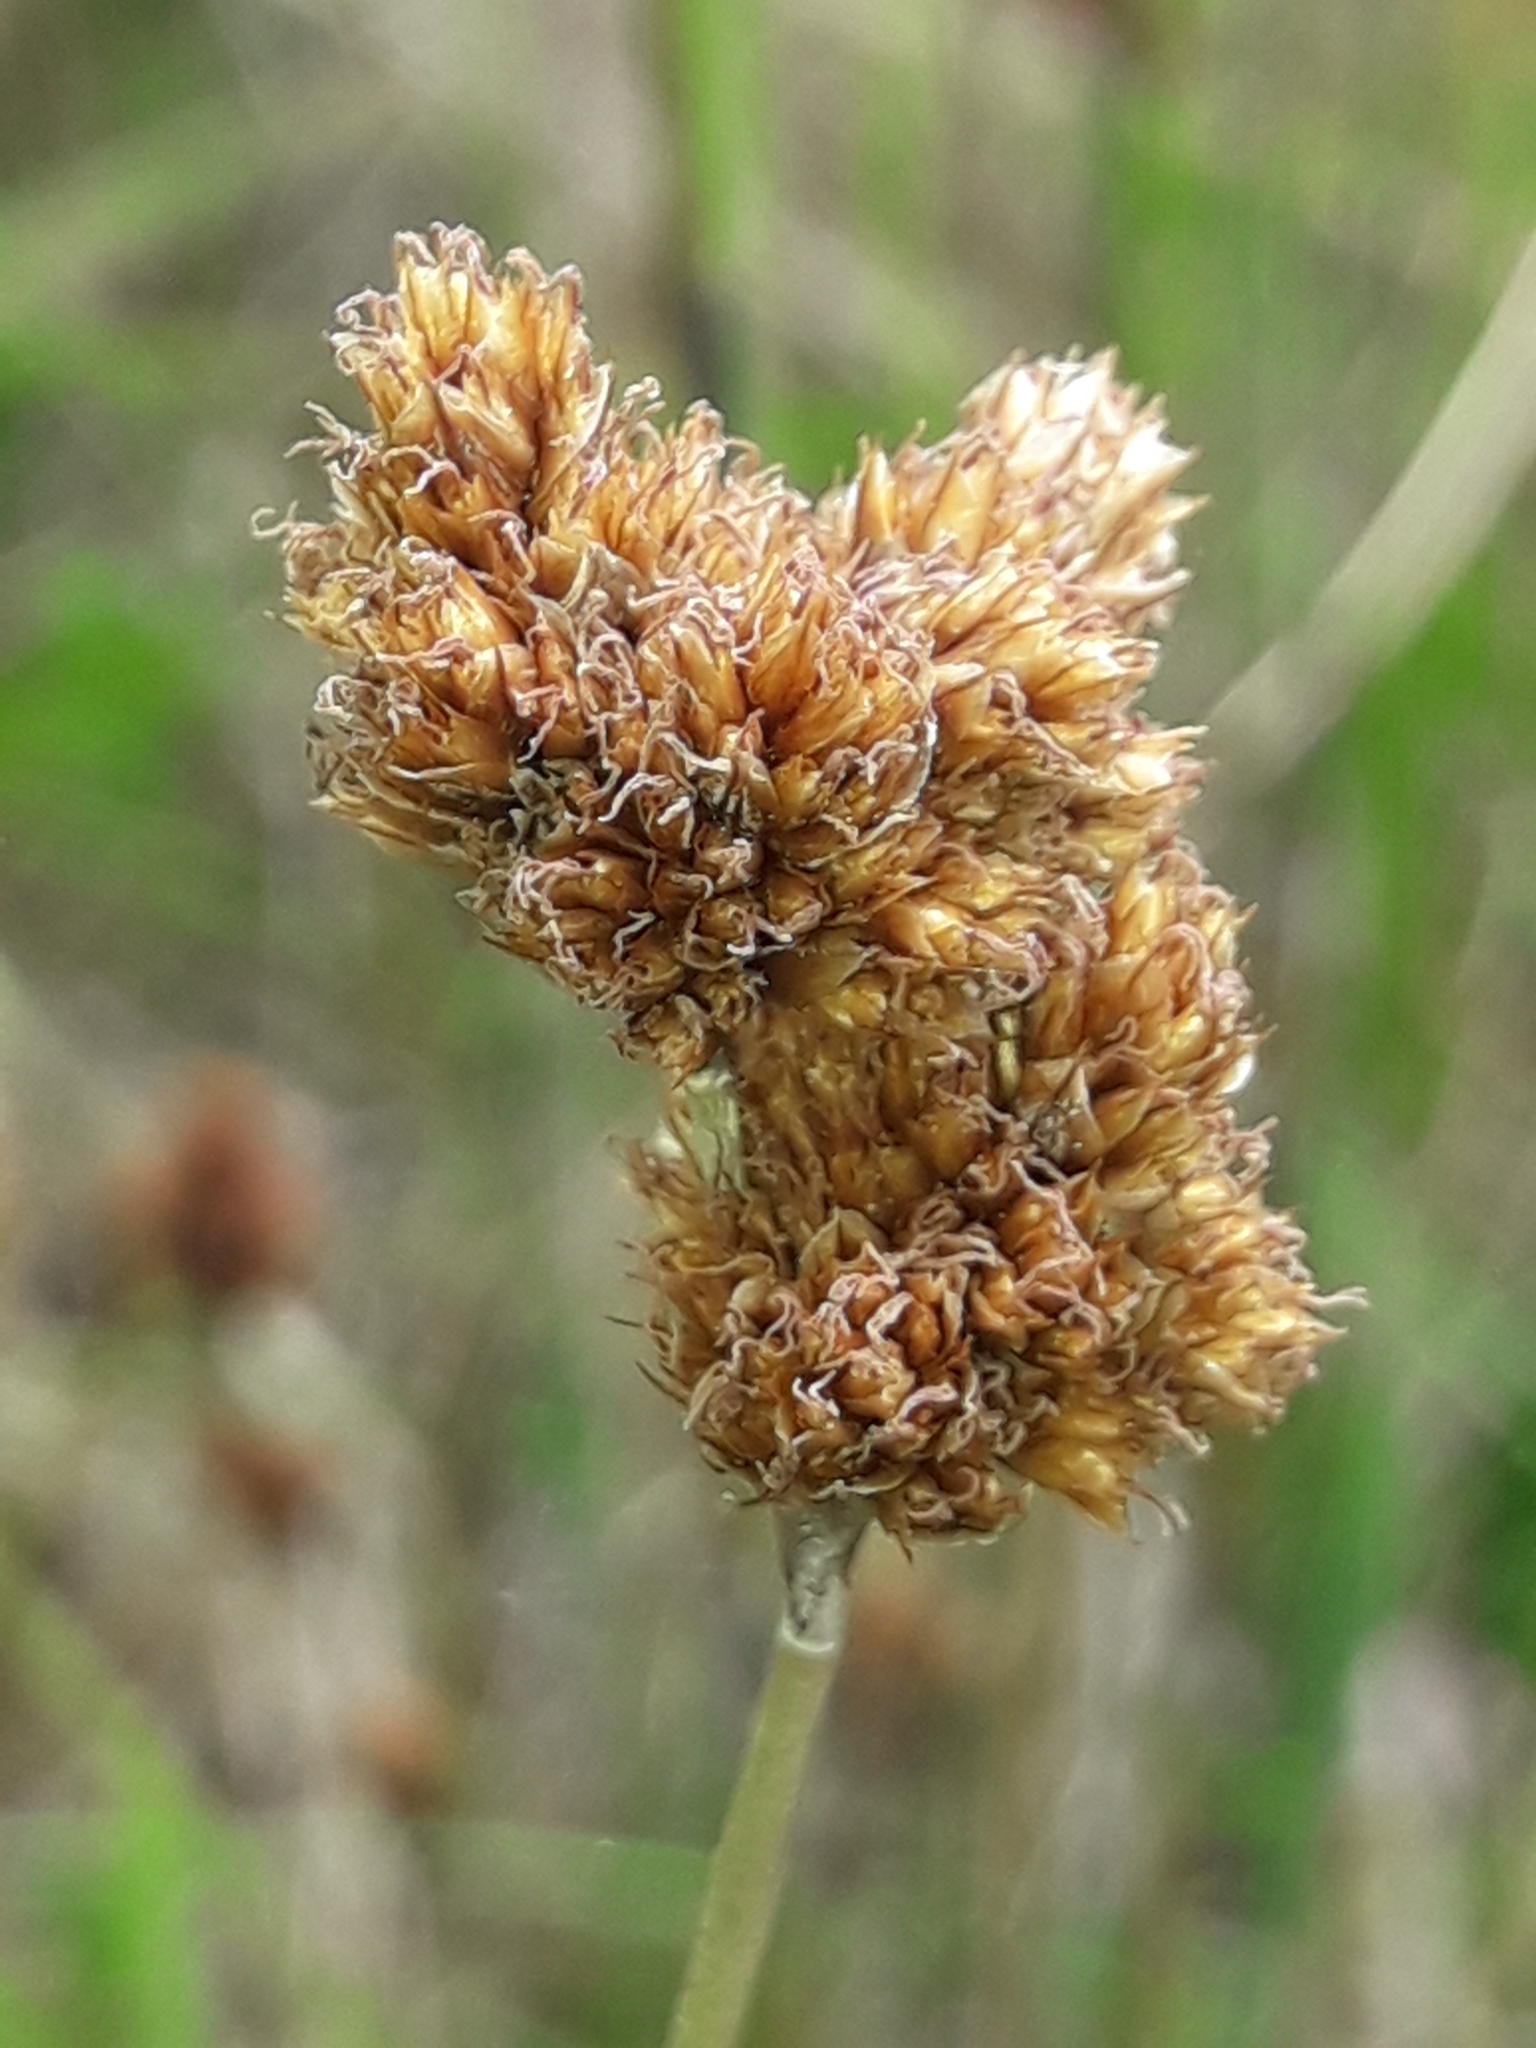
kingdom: Plantae
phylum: Tracheophyta
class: Liliopsida
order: Poales
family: Restionaceae
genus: Apodasmia
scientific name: Apodasmia similis
